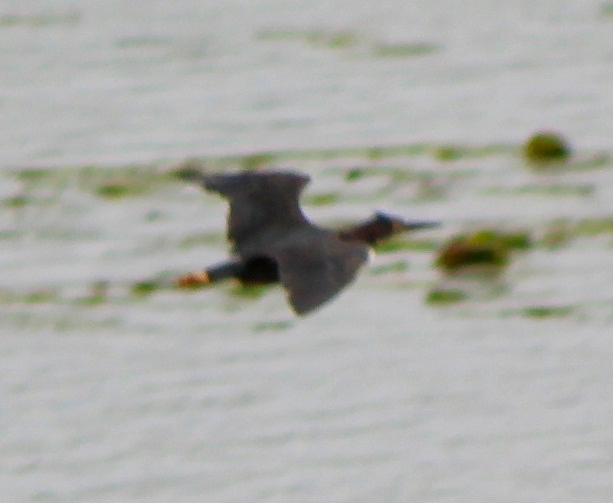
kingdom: Animalia
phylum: Chordata
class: Aves
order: Pelecaniformes
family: Ardeidae
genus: Butorides
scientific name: Butorides virescens
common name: Green heron
